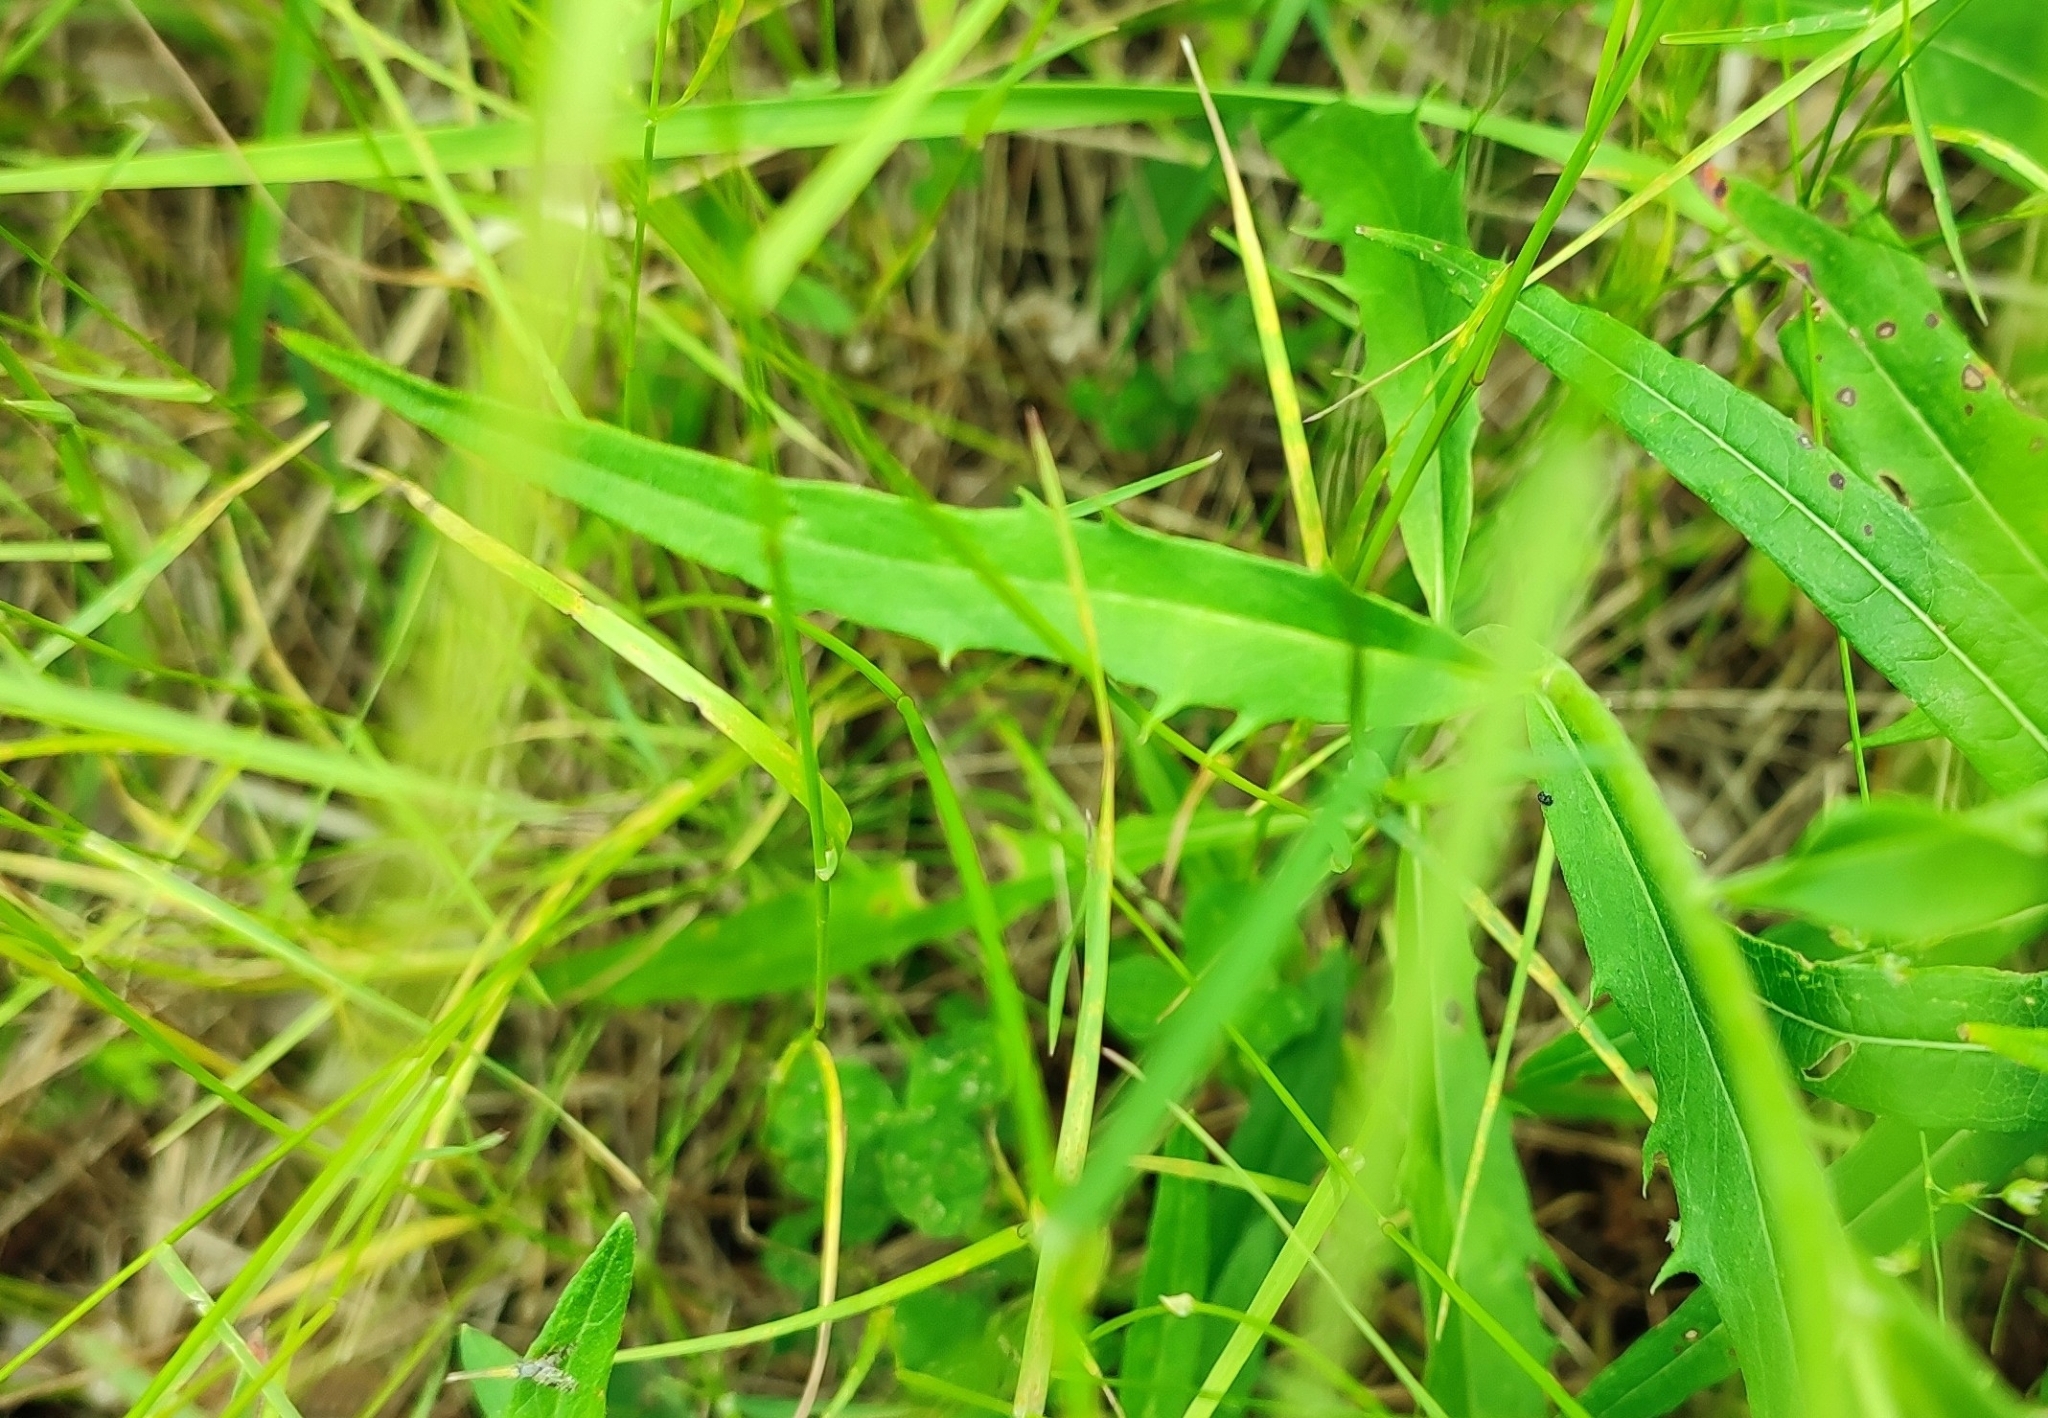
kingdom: Plantae
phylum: Tracheophyta
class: Magnoliopsida
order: Asterales
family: Asteraceae
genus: Hieracium
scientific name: Hieracium umbellatum
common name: Northern hawkweed
